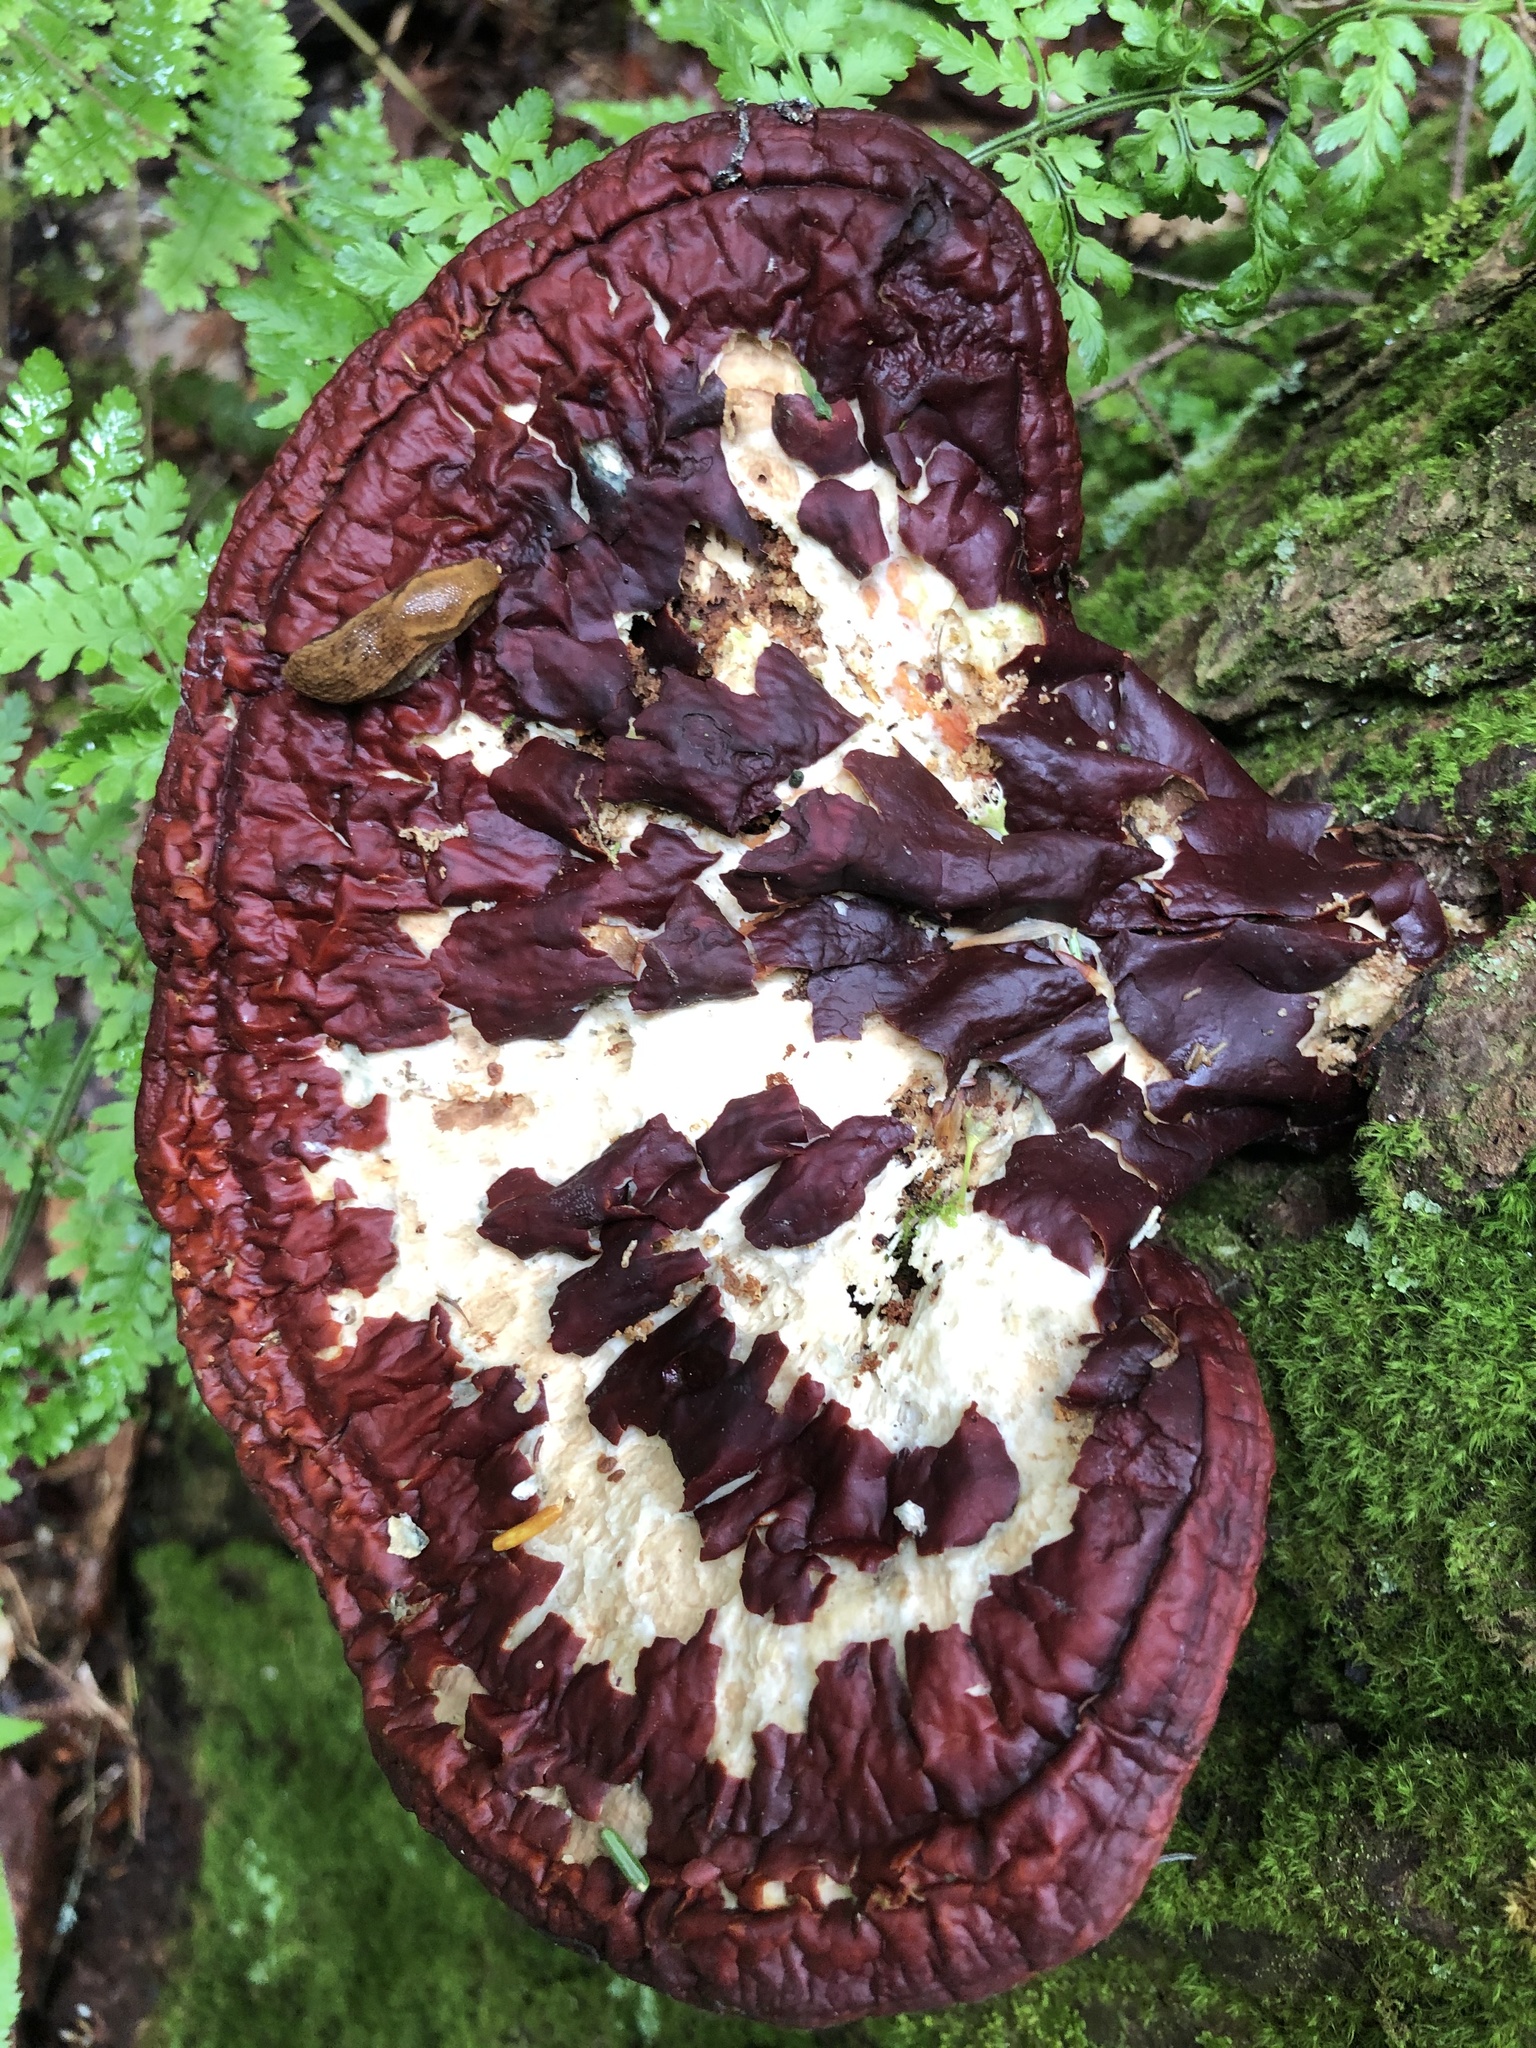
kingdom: Fungi
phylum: Basidiomycota
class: Agaricomycetes
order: Polyporales
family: Polyporaceae
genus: Ganoderma
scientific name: Ganoderma tsugae
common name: Hemlock varnish shelf
